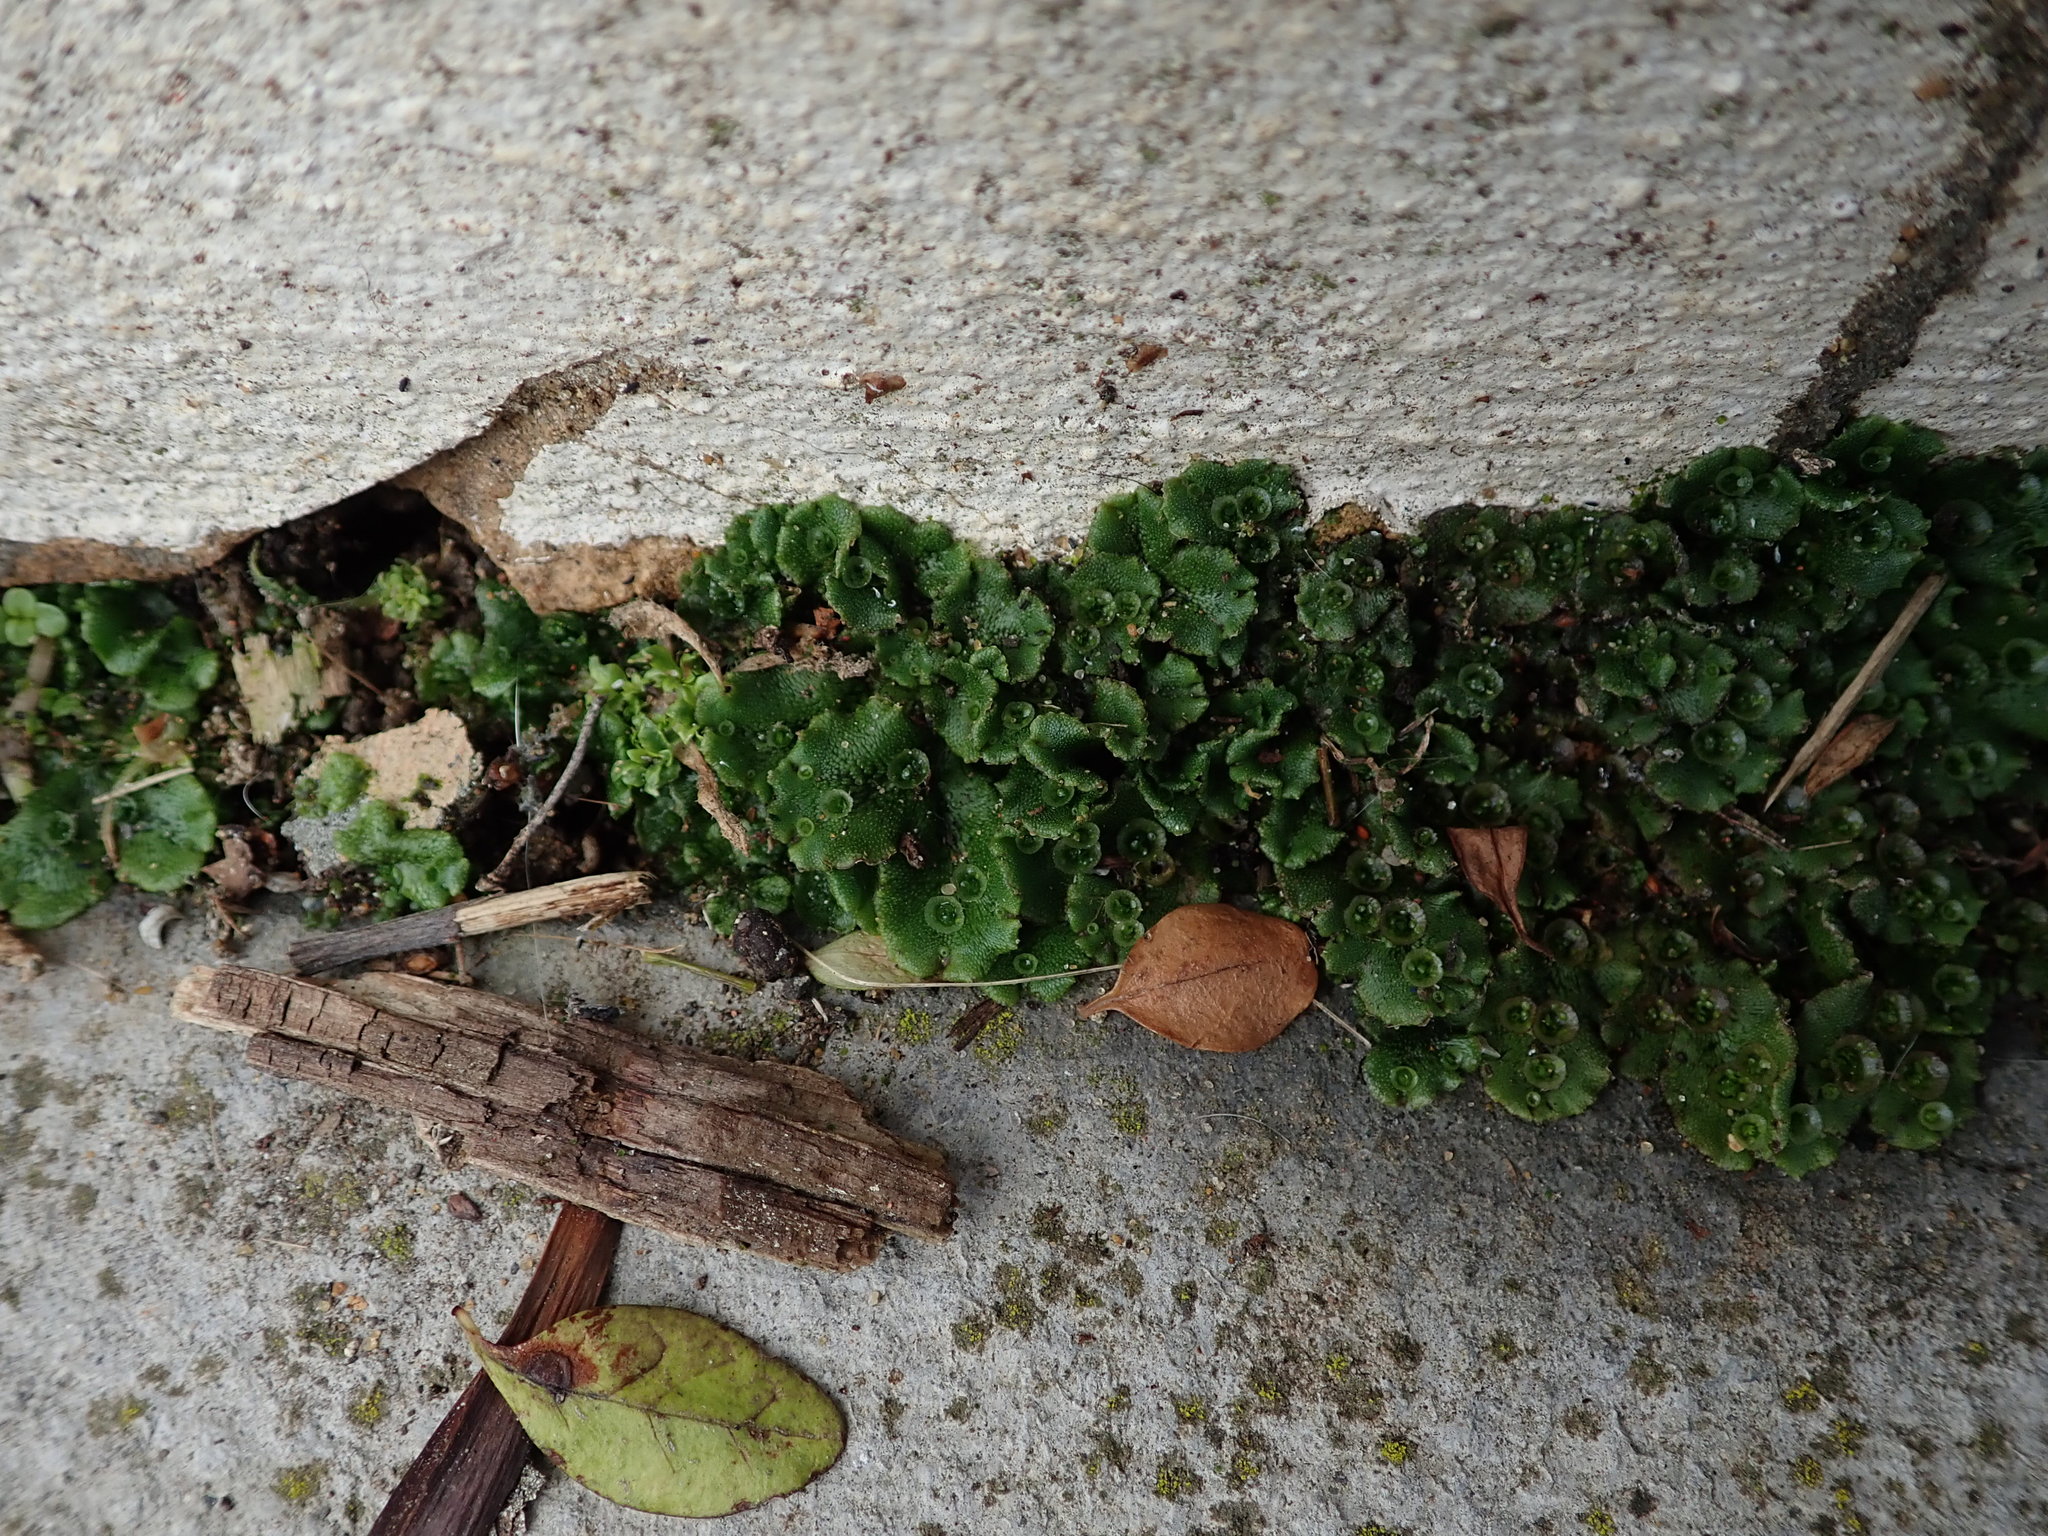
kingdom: Plantae
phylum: Marchantiophyta
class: Marchantiopsida
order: Marchantiales
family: Marchantiaceae
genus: Marchantia
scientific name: Marchantia polymorpha
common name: Common liverwort
